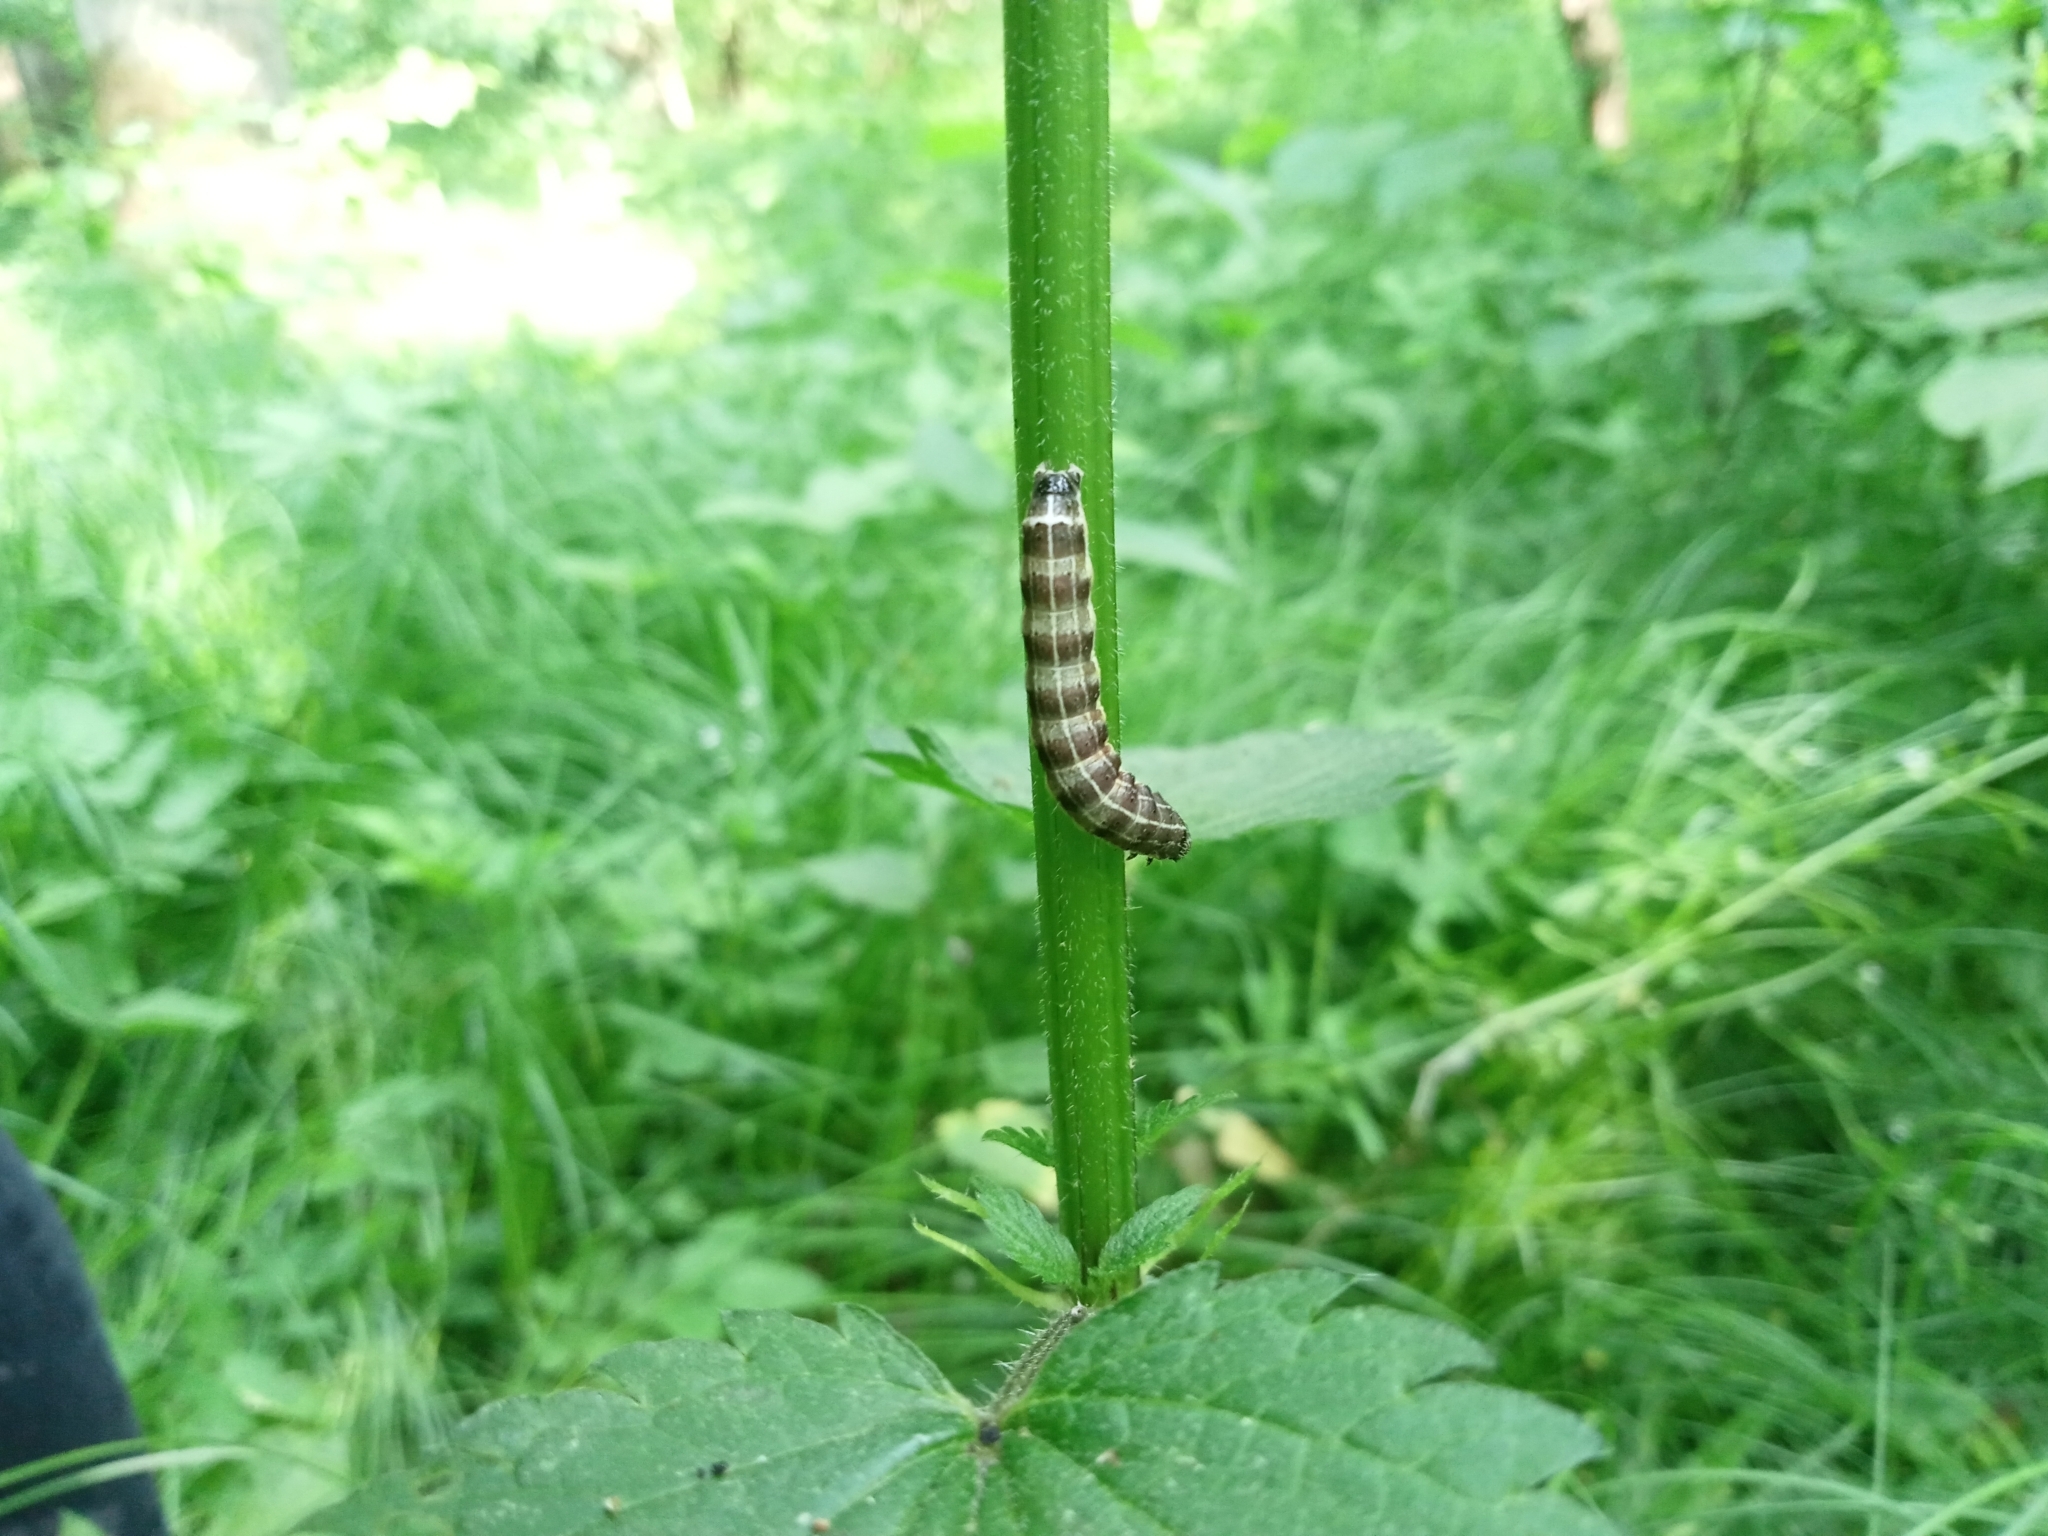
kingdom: Animalia
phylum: Arthropoda
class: Insecta
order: Lepidoptera
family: Noctuidae
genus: Orthosia
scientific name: Orthosia cruda
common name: Small quaker
